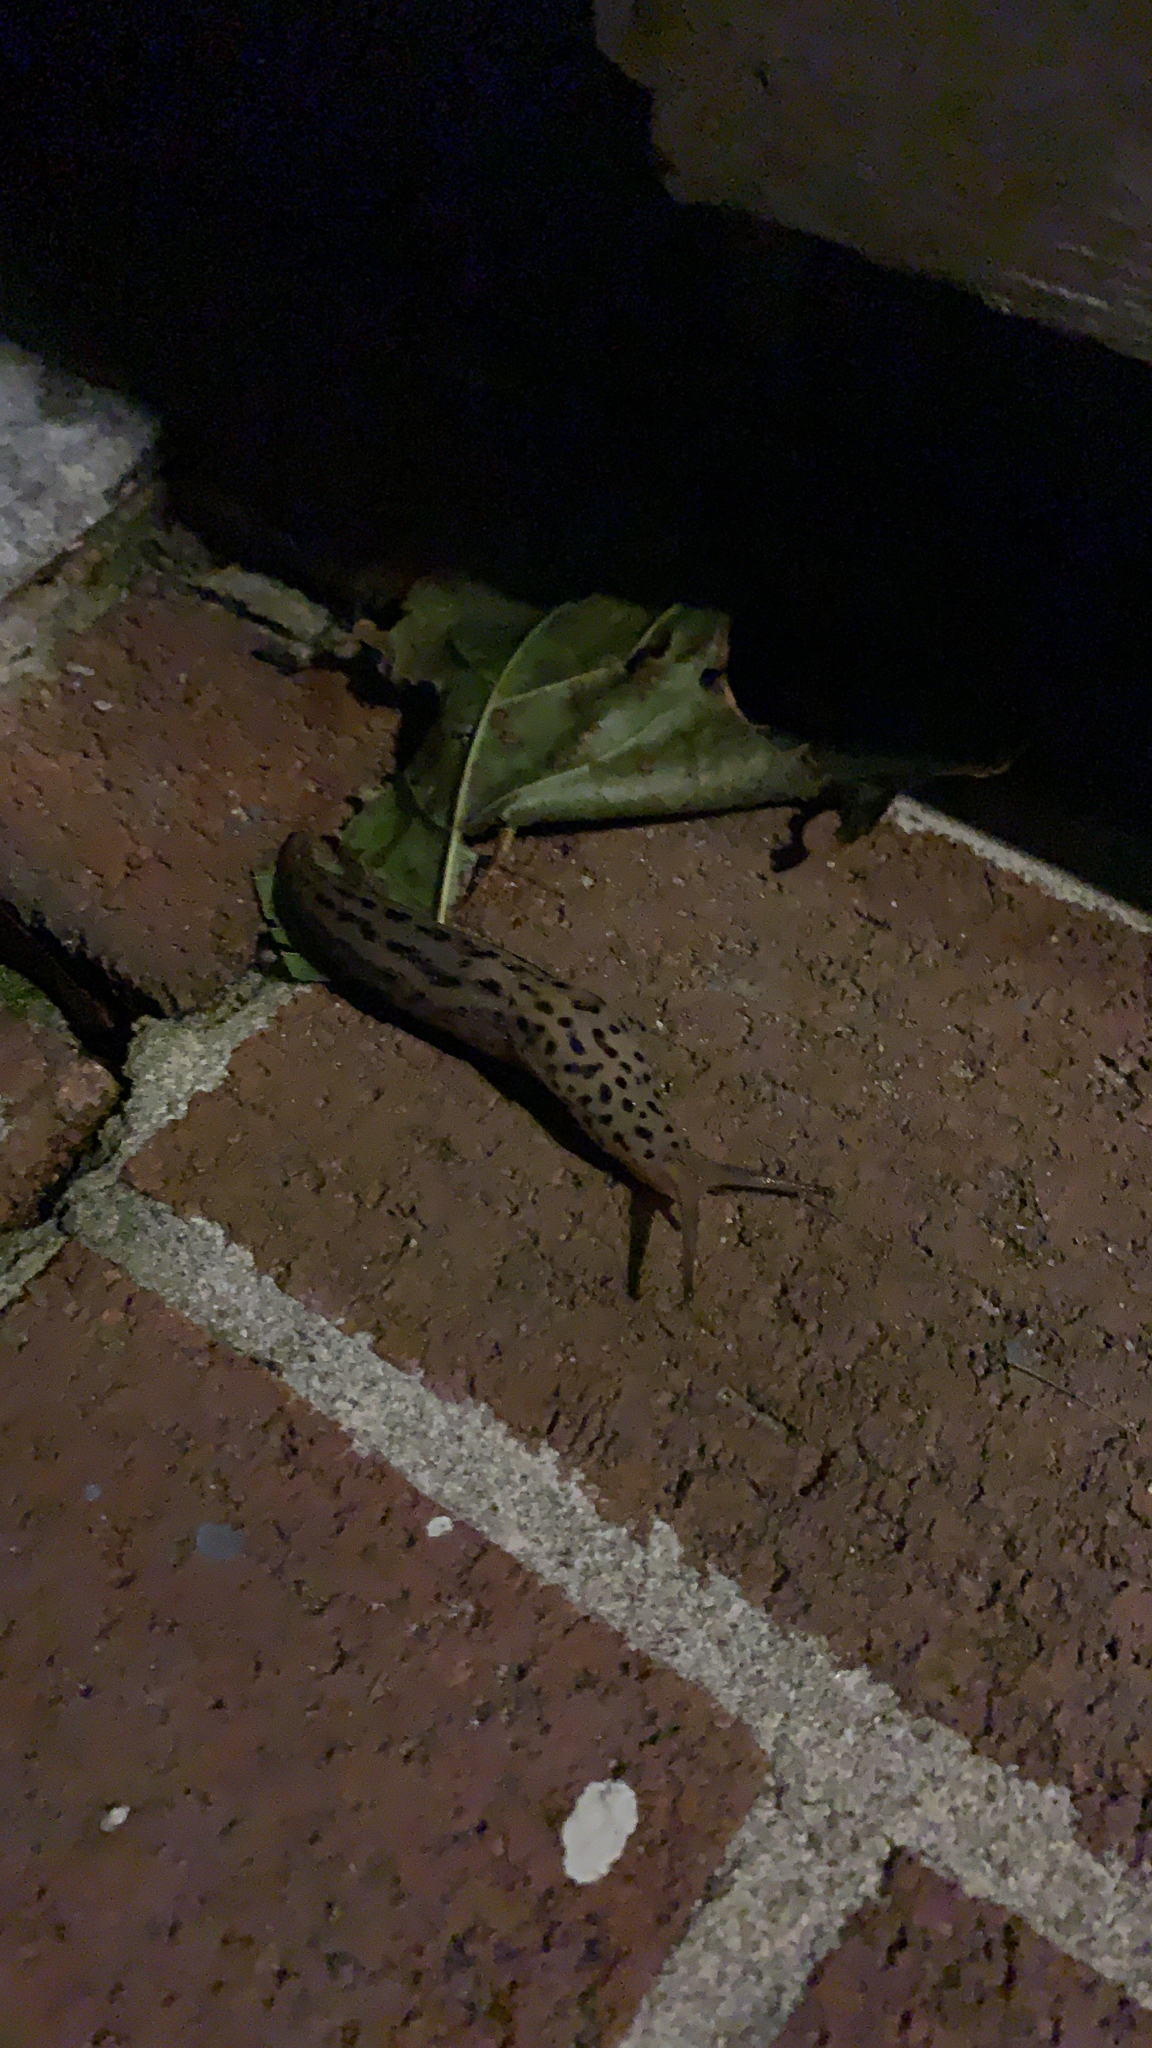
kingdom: Animalia
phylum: Mollusca
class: Gastropoda
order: Stylommatophora
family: Limacidae
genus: Limax
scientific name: Limax maximus
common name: Great grey slug
